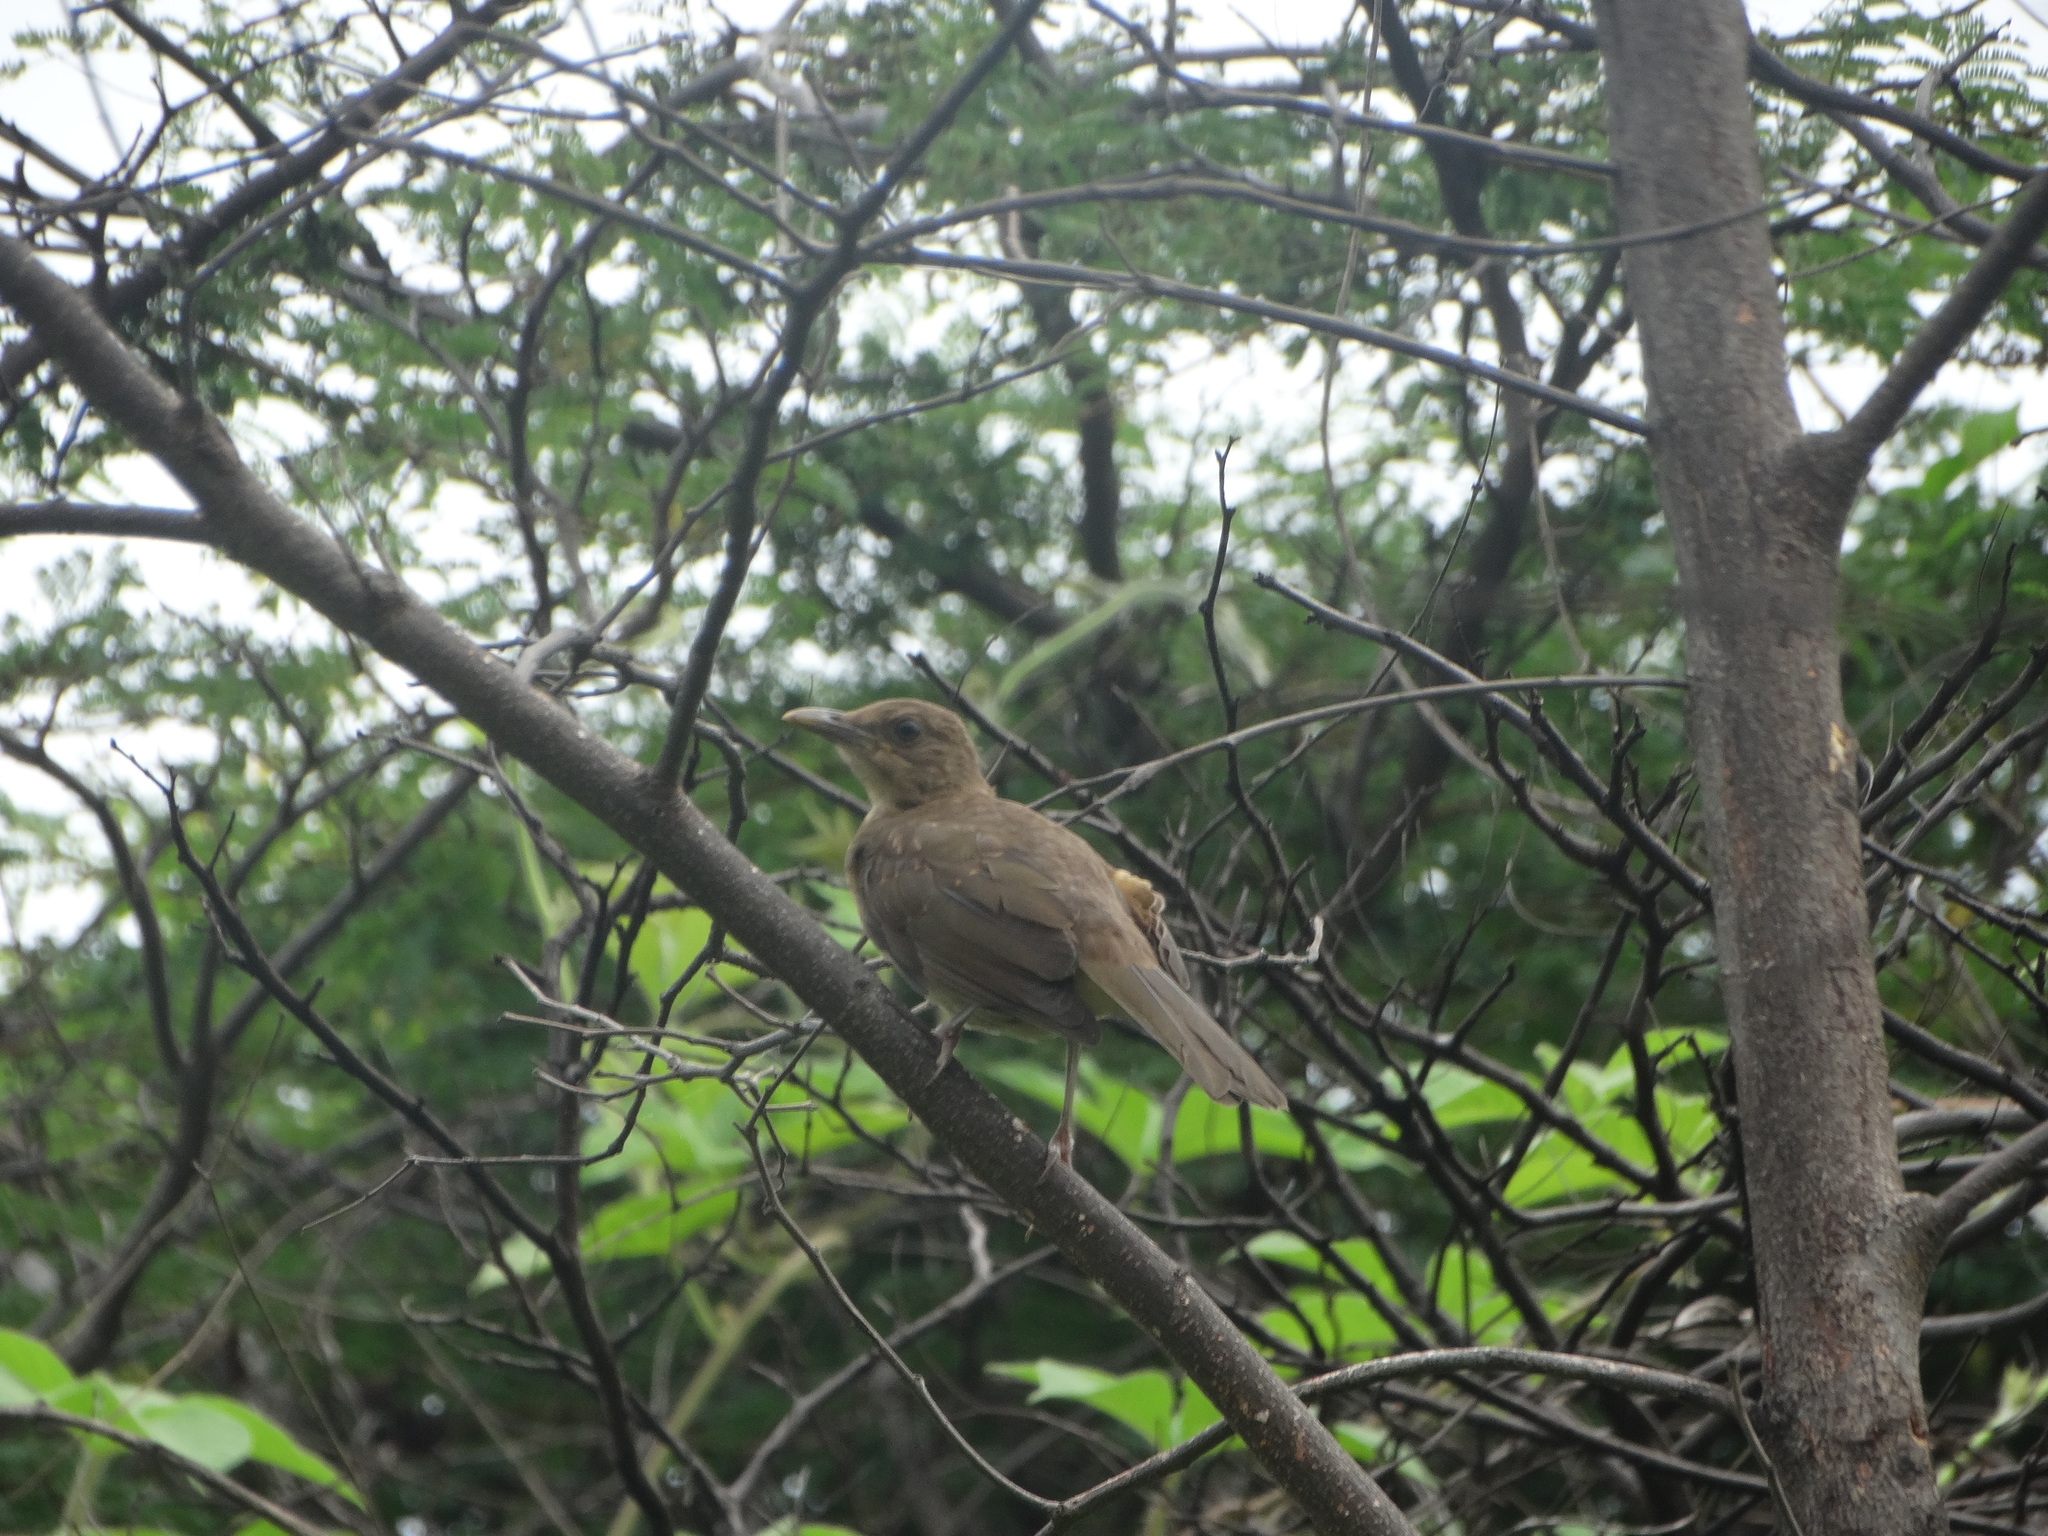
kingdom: Animalia
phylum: Chordata
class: Aves
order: Passeriformes
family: Turdidae
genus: Turdus
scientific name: Turdus grayi
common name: Clay-colored thrush
